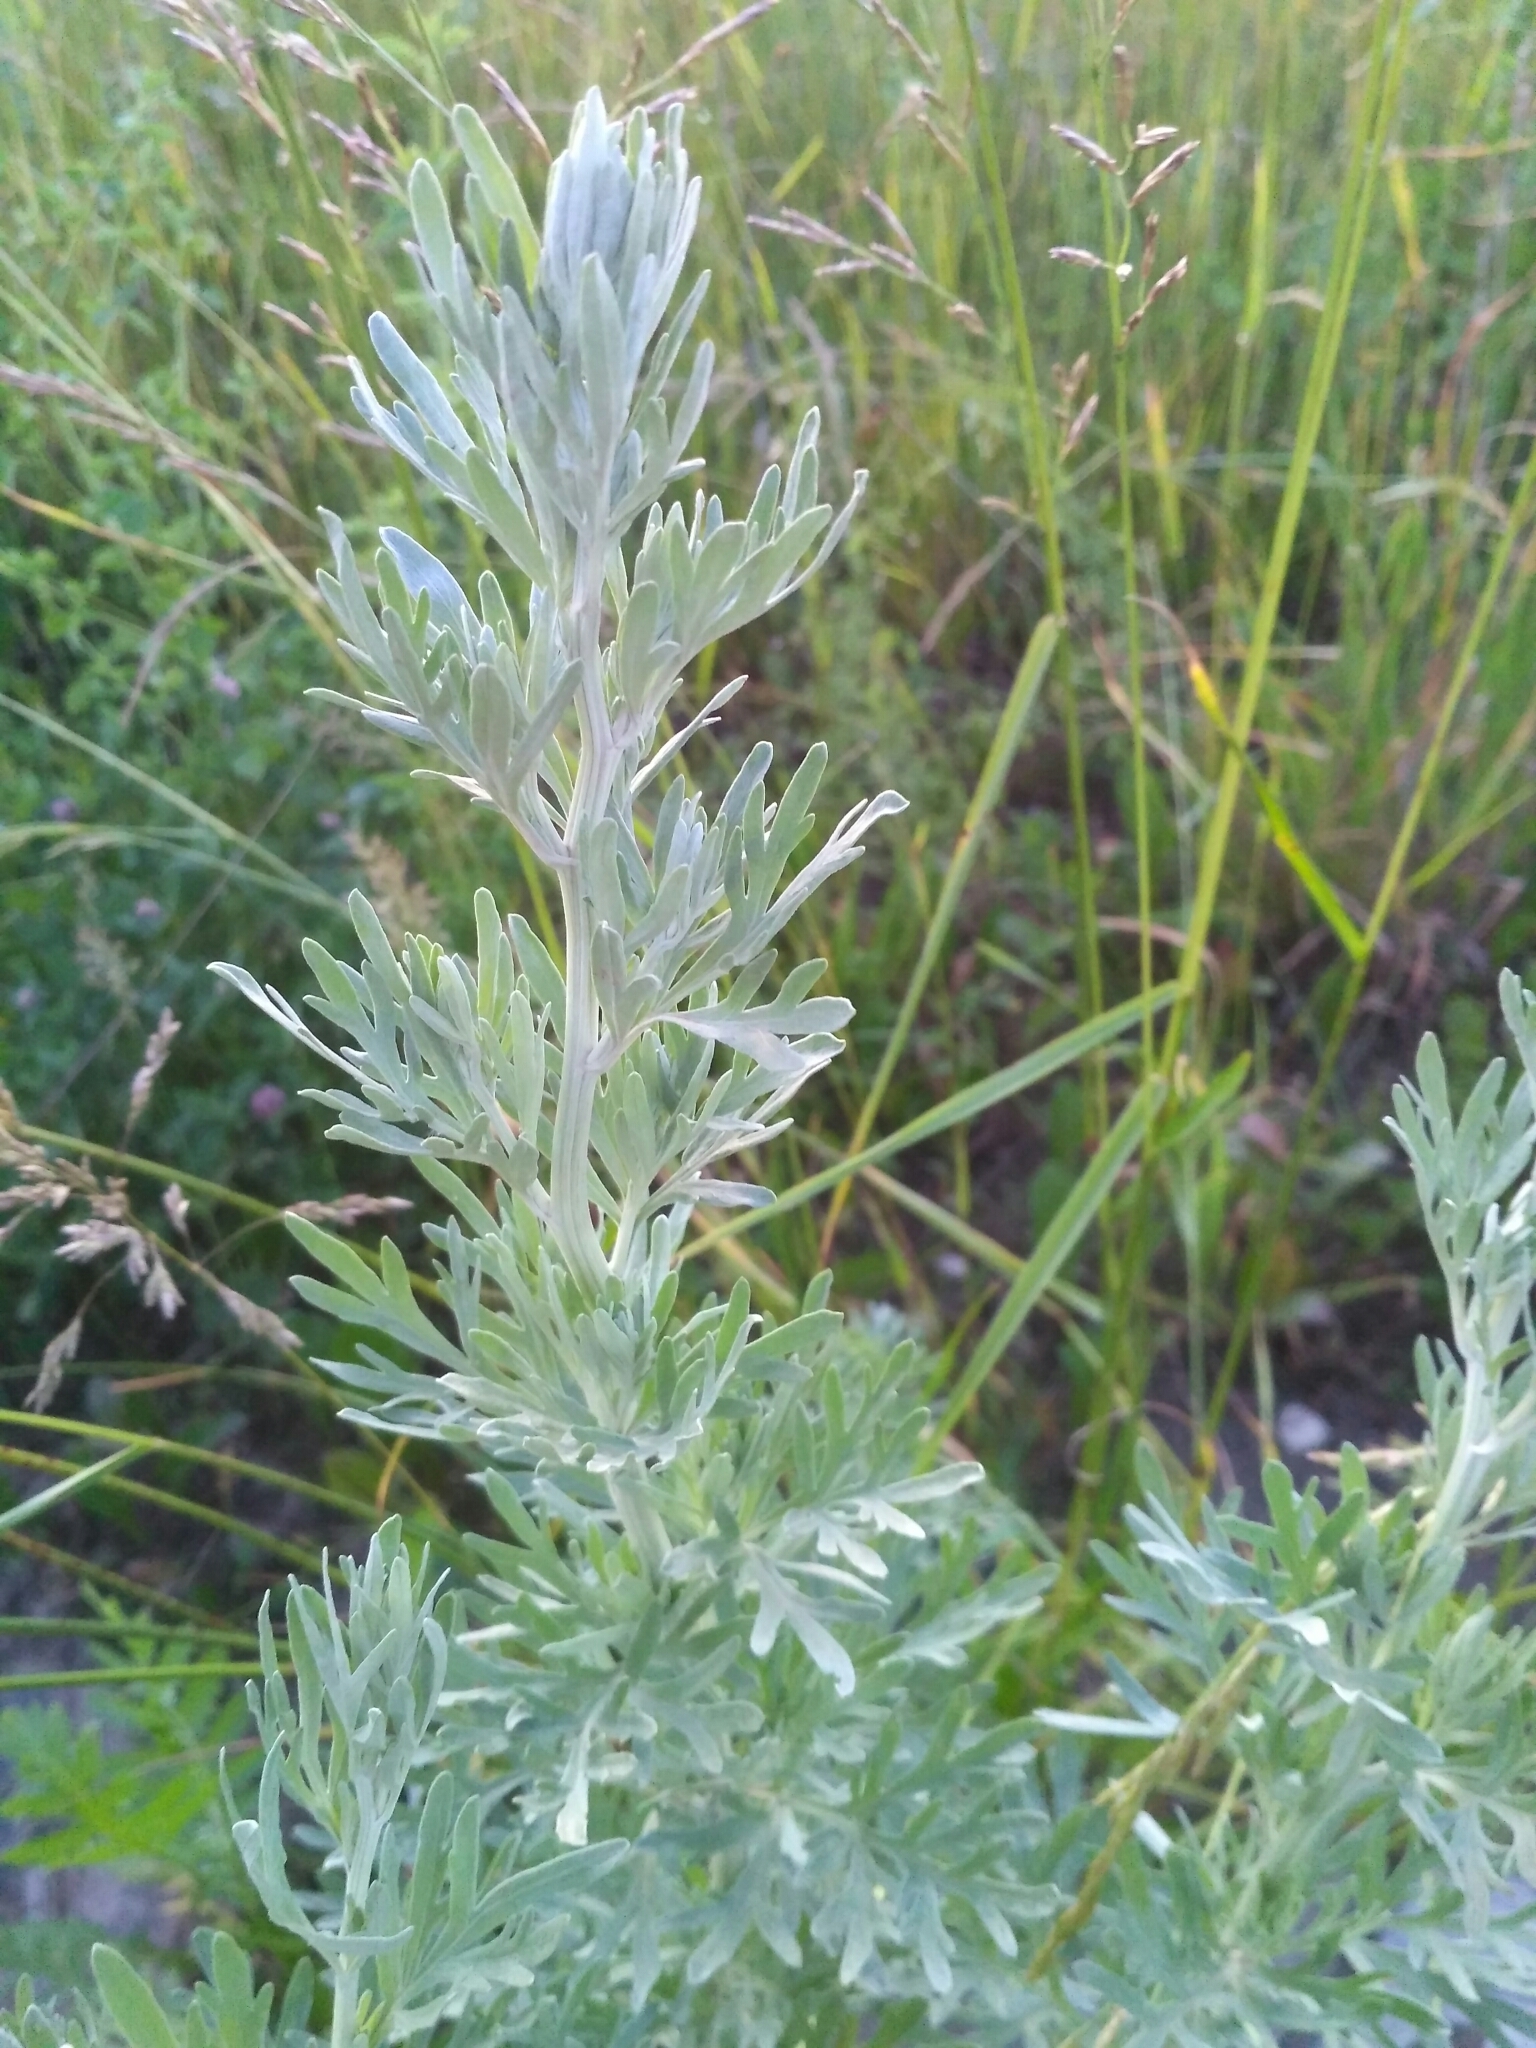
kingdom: Plantae
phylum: Tracheophyta
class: Magnoliopsida
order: Asterales
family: Asteraceae
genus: Artemisia
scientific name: Artemisia absinthium
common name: Wormwood
